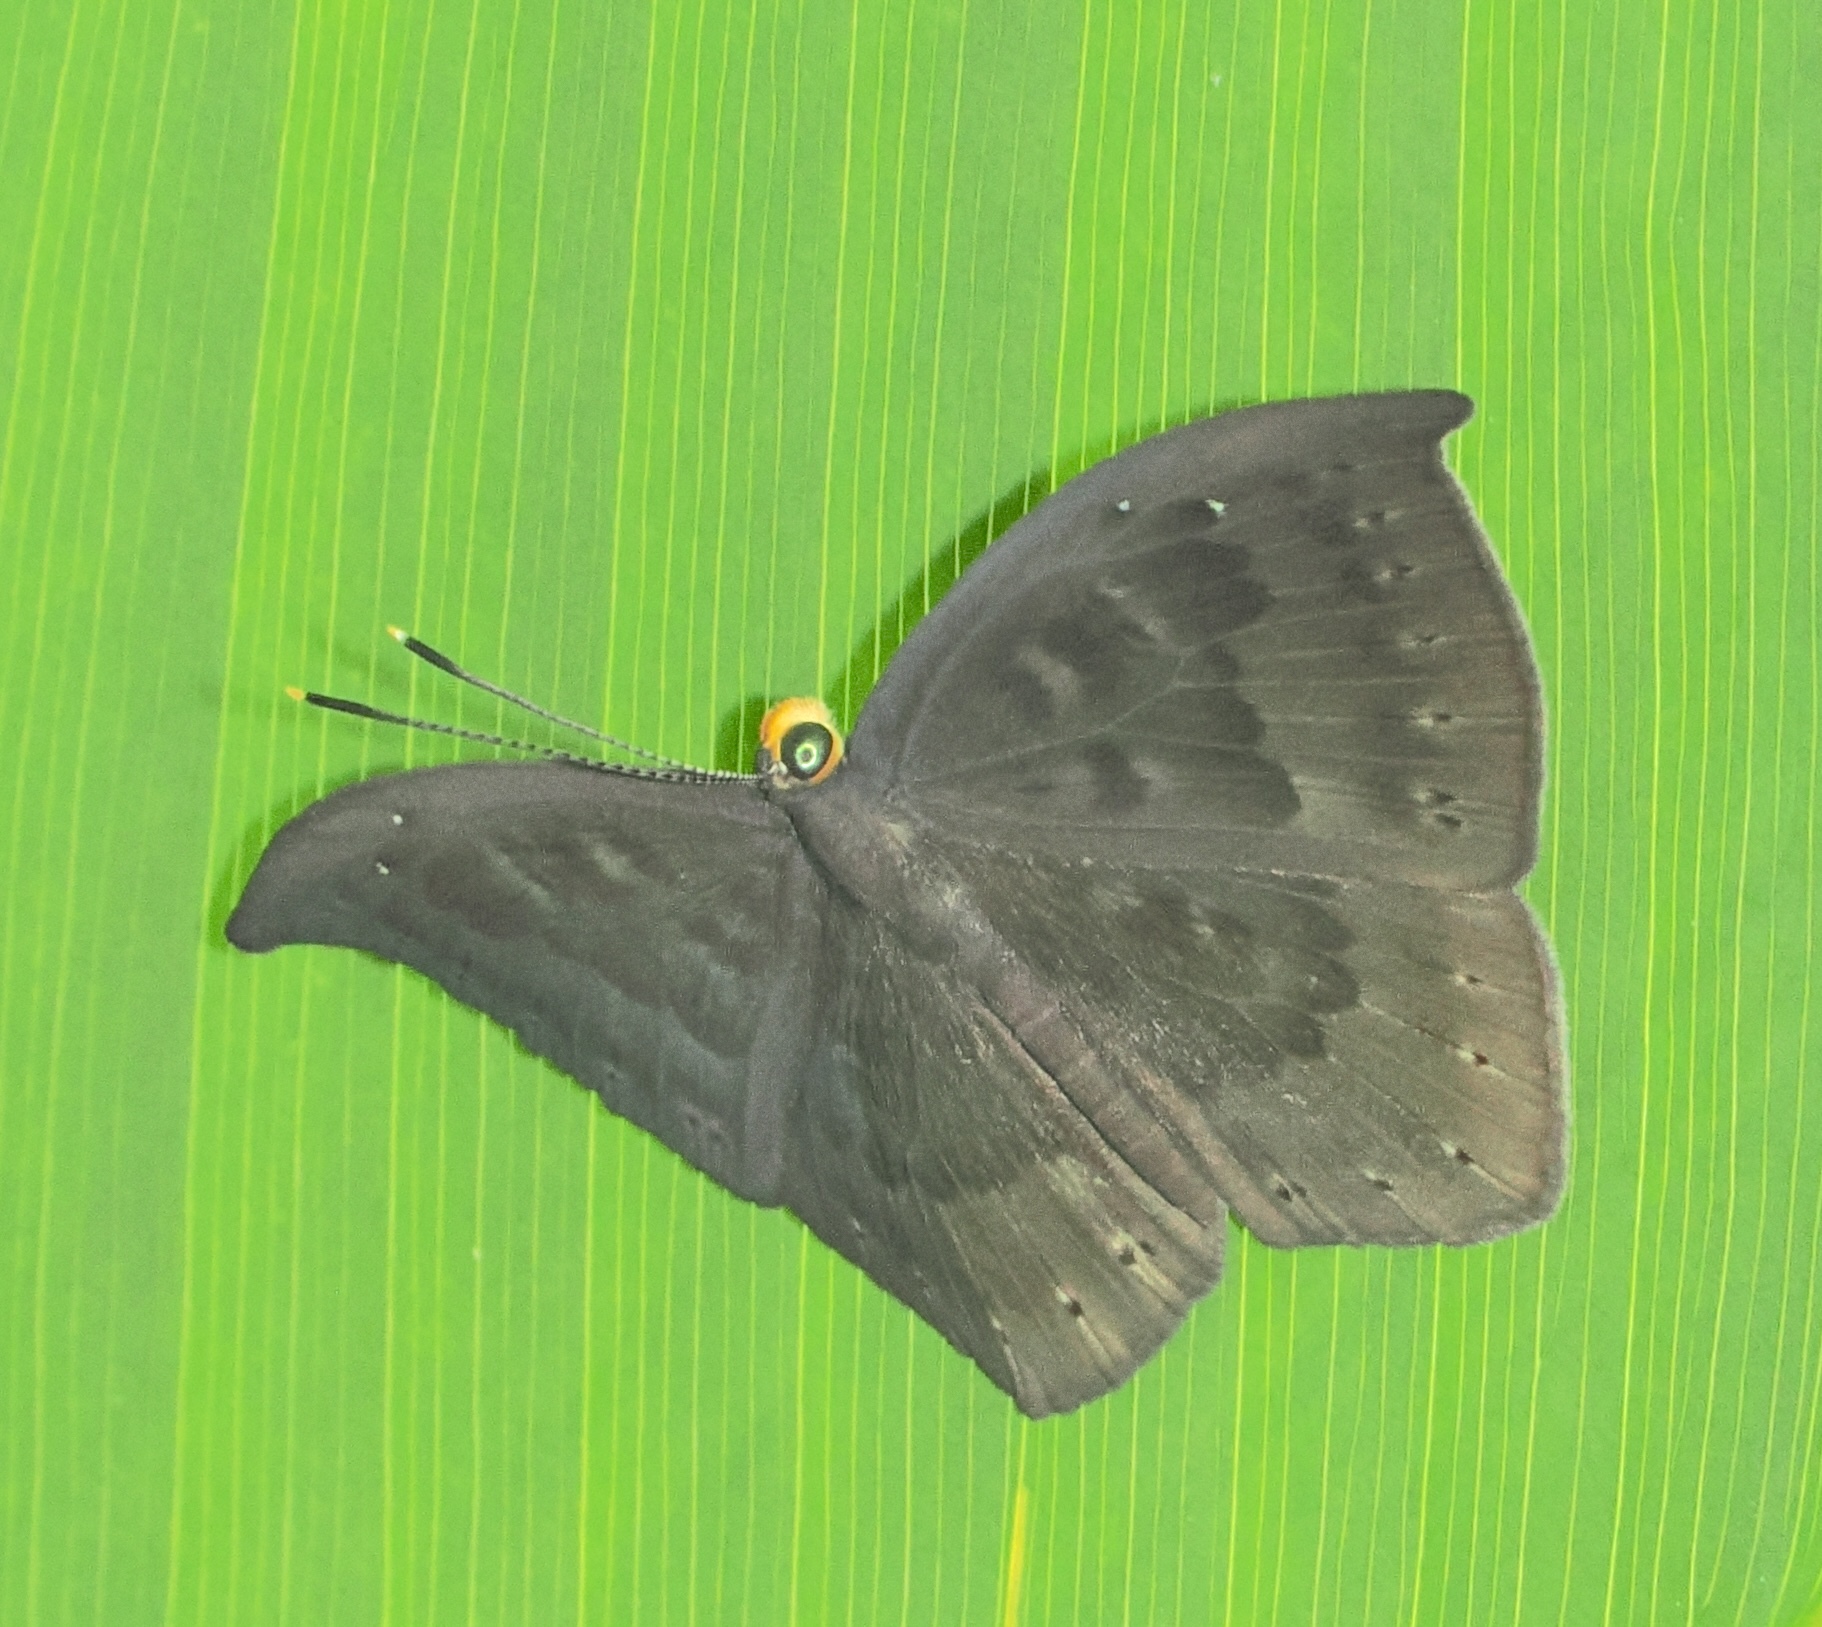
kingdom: Animalia
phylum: Cnidaria
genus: Eurybia
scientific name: Eurybia pergaea
